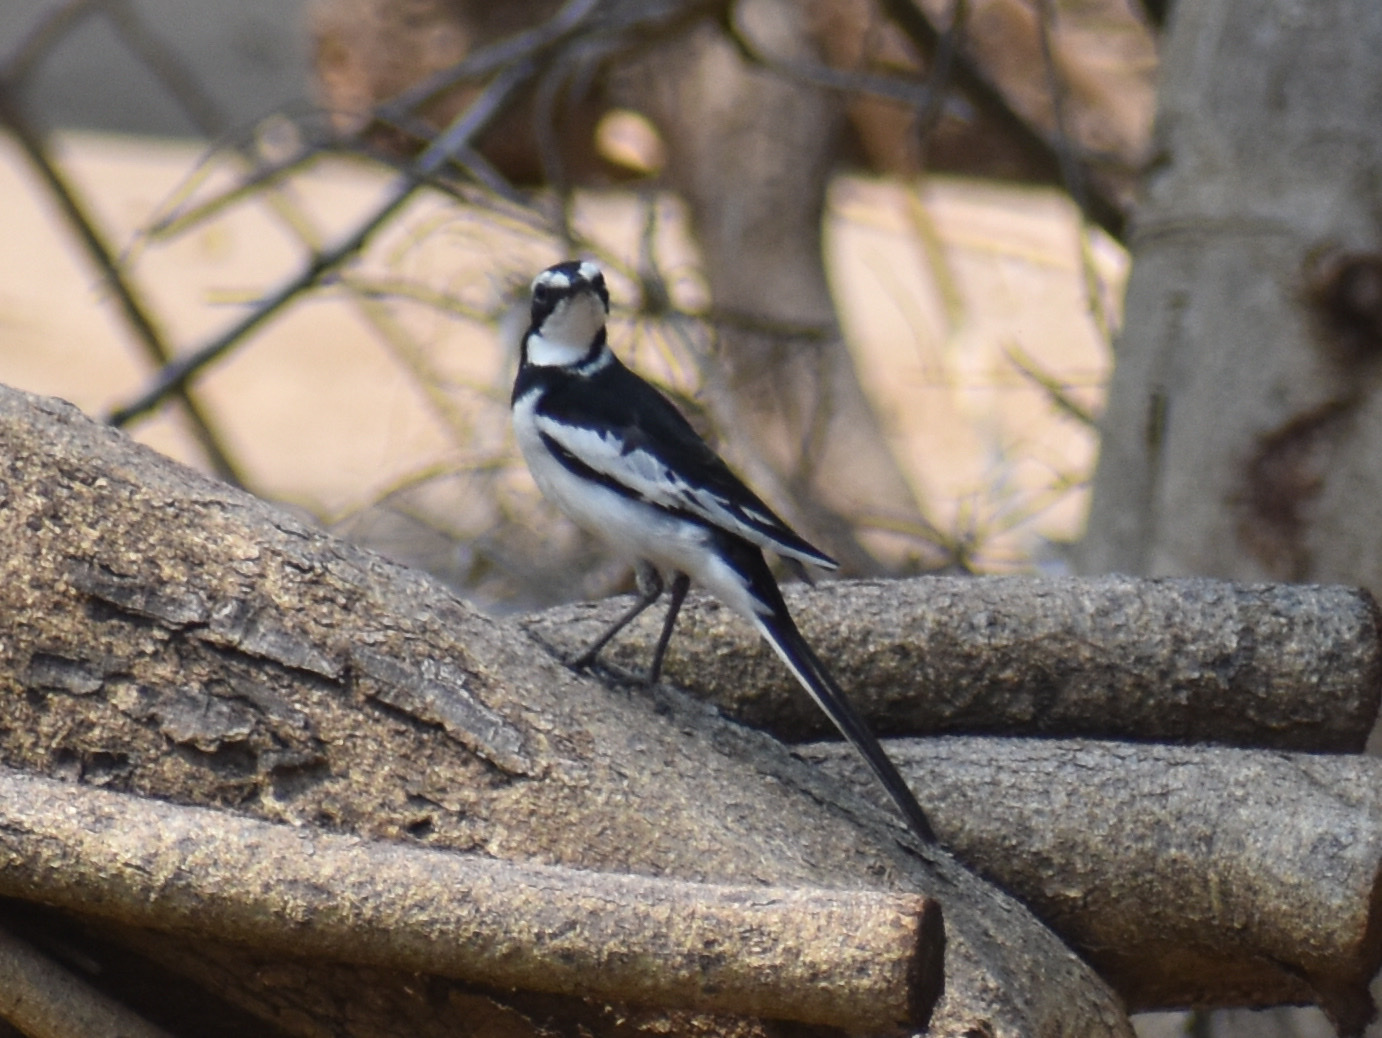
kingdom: Animalia
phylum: Chordata
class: Aves
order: Passeriformes
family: Motacillidae
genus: Motacilla
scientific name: Motacilla aguimp
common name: African pied wagtail
